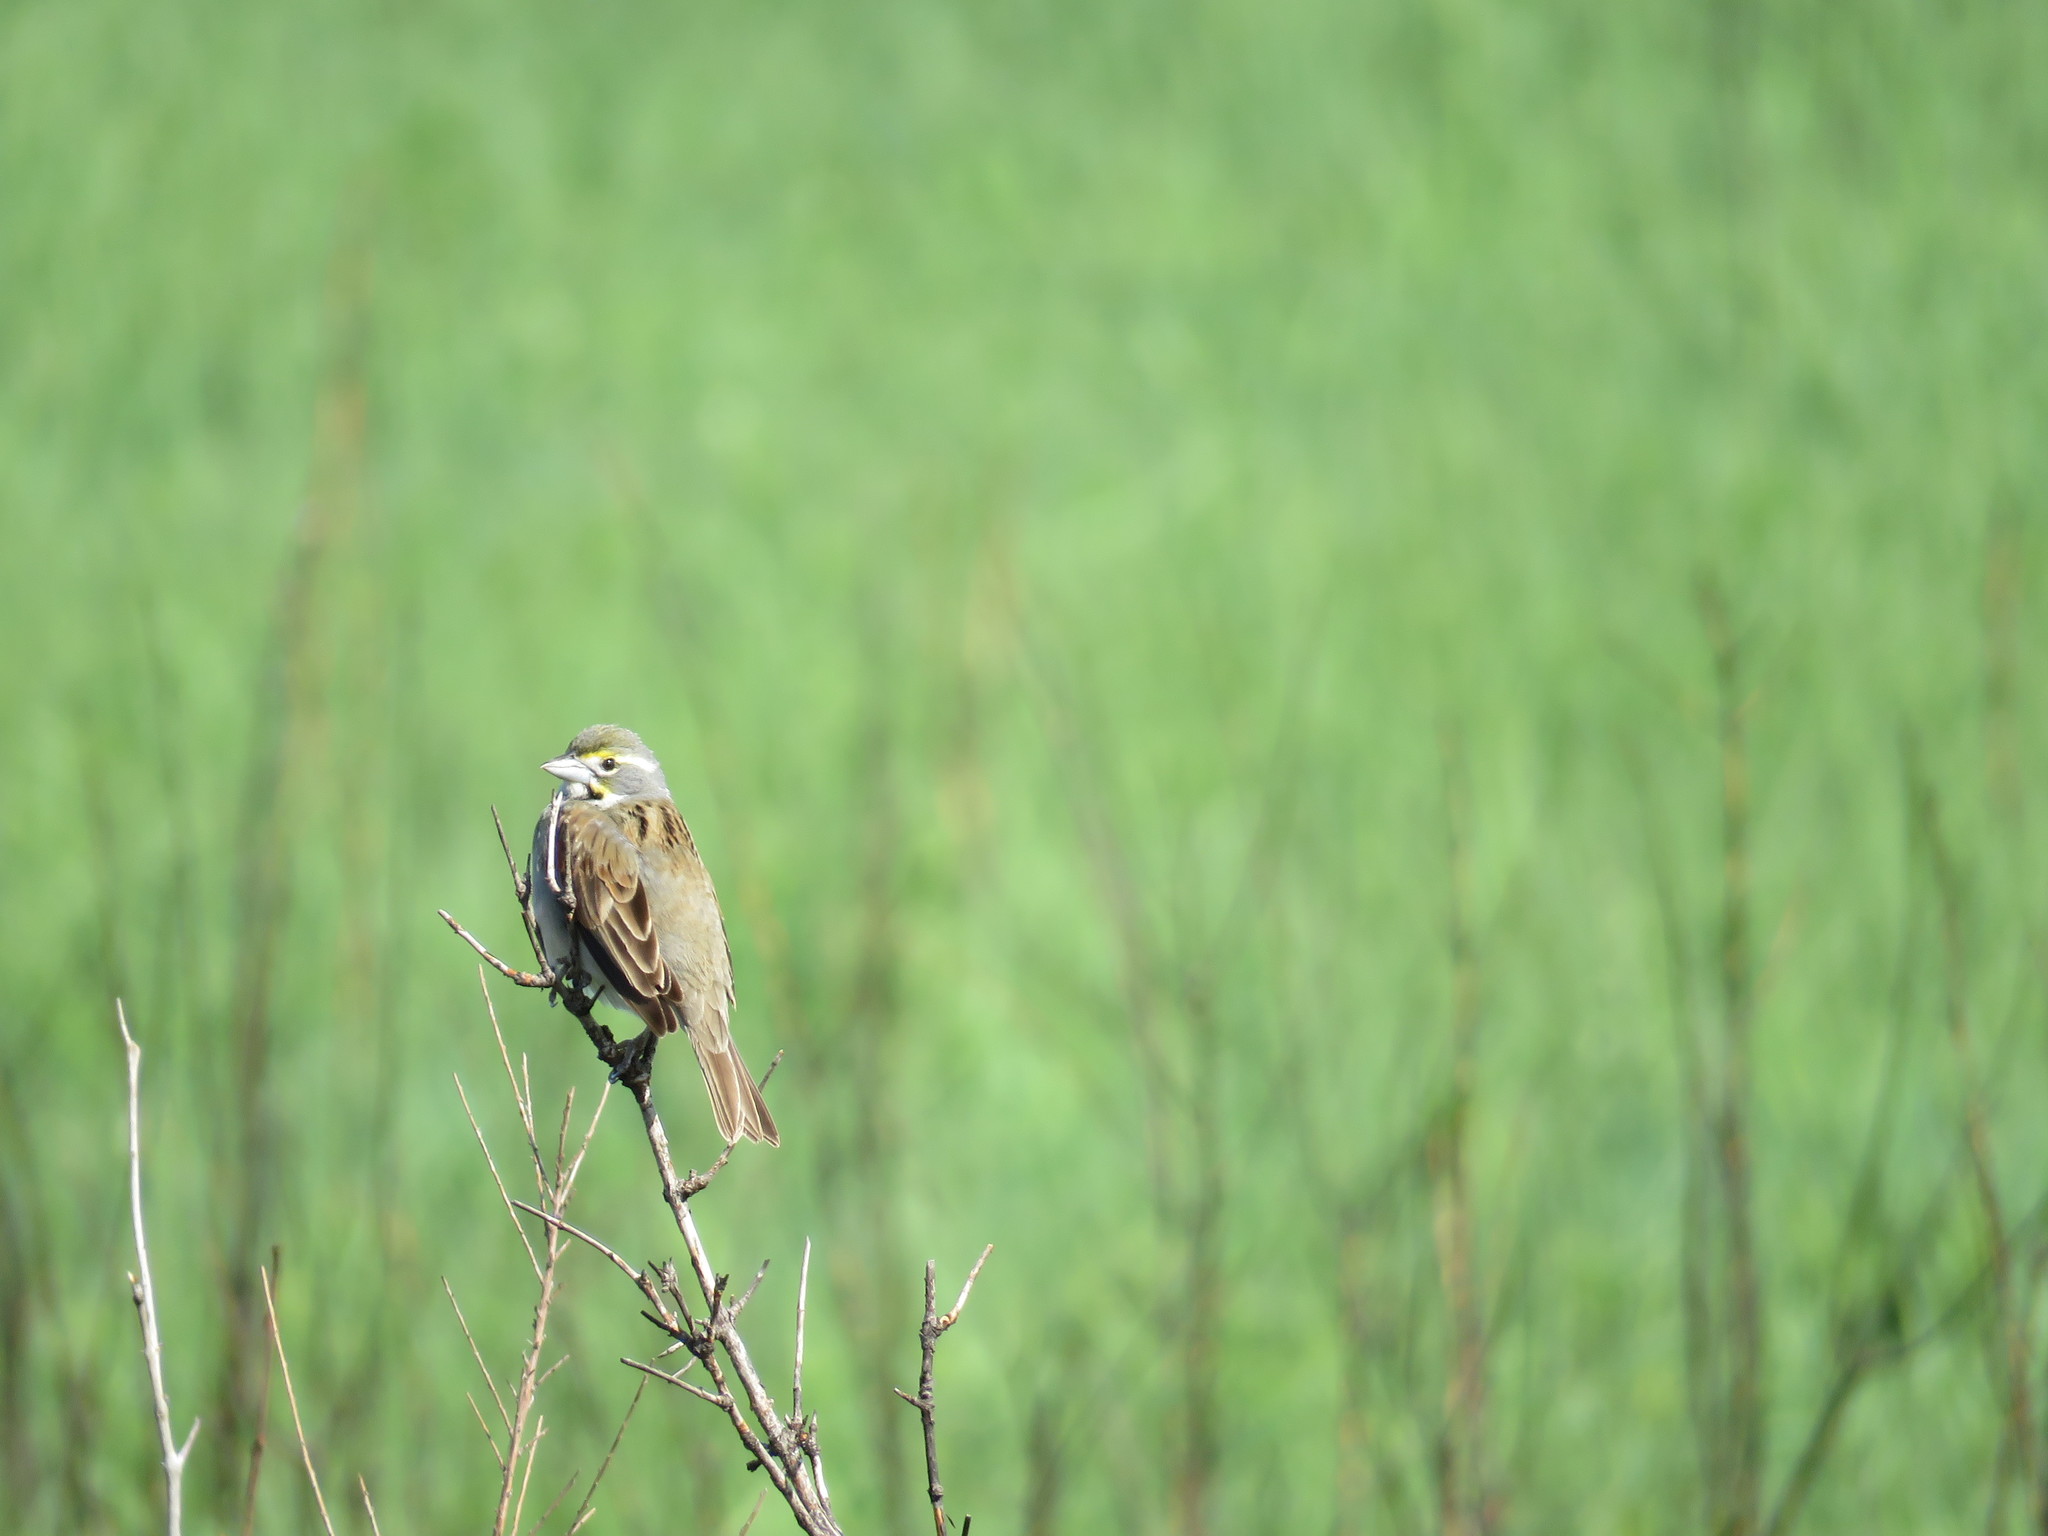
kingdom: Animalia
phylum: Chordata
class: Aves
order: Passeriformes
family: Cardinalidae
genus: Spiza
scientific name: Spiza americana
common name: Dickcissel
